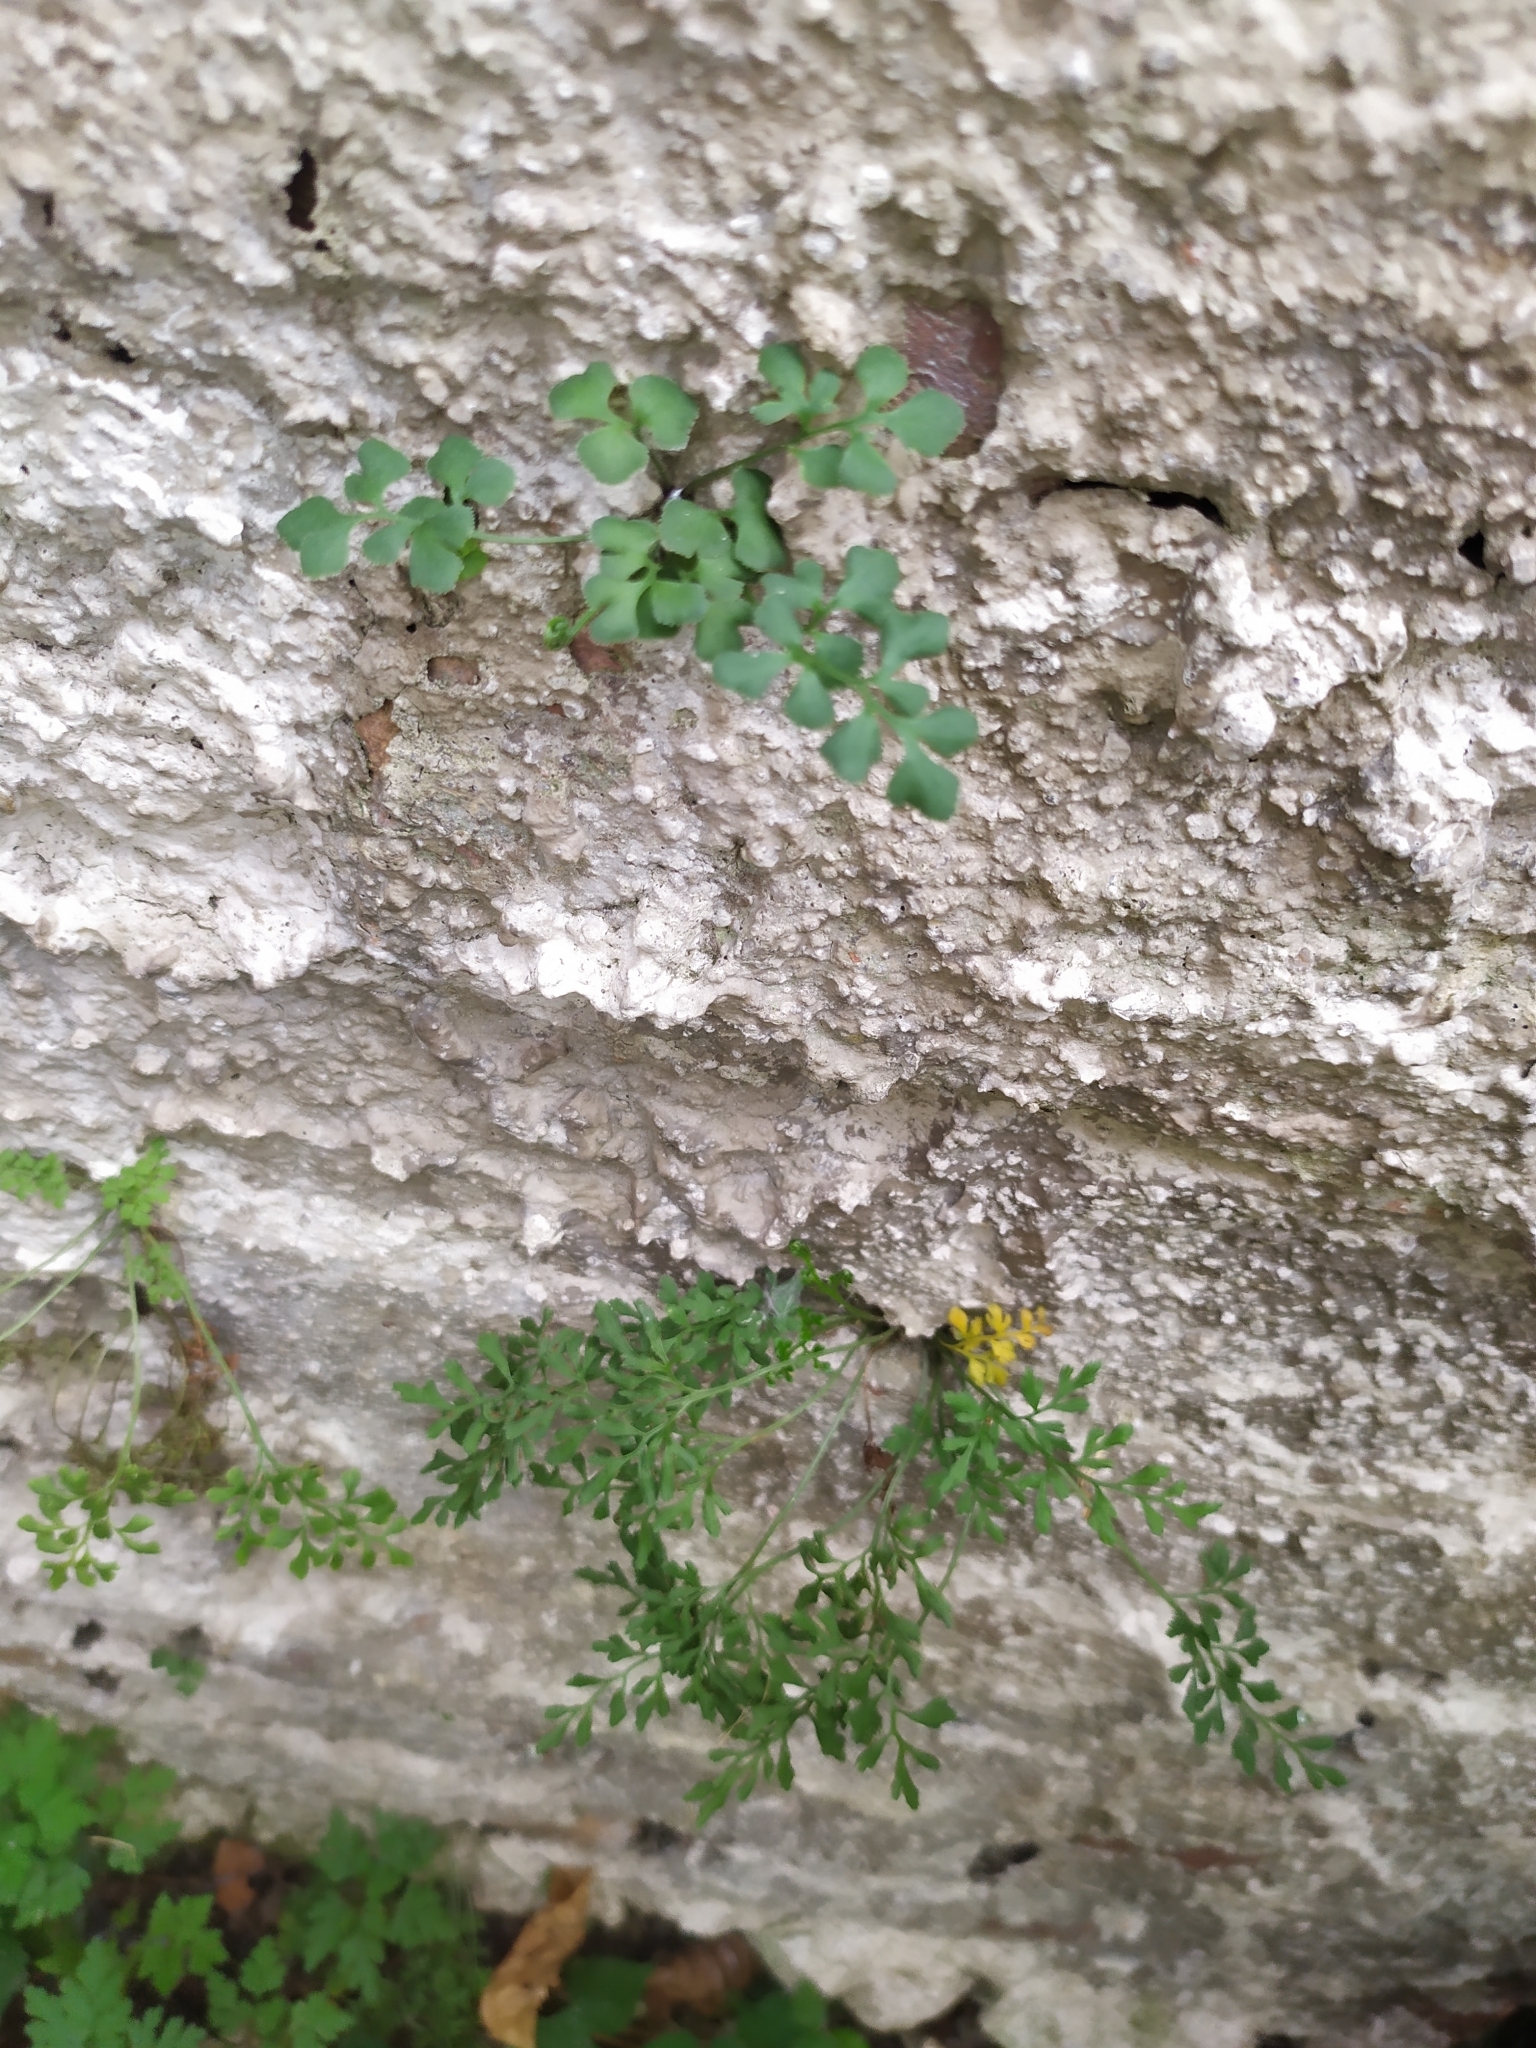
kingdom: Plantae
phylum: Tracheophyta
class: Polypodiopsida
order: Polypodiales
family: Aspleniaceae
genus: Asplenium
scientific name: Asplenium ruta-muraria
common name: Wall-rue
